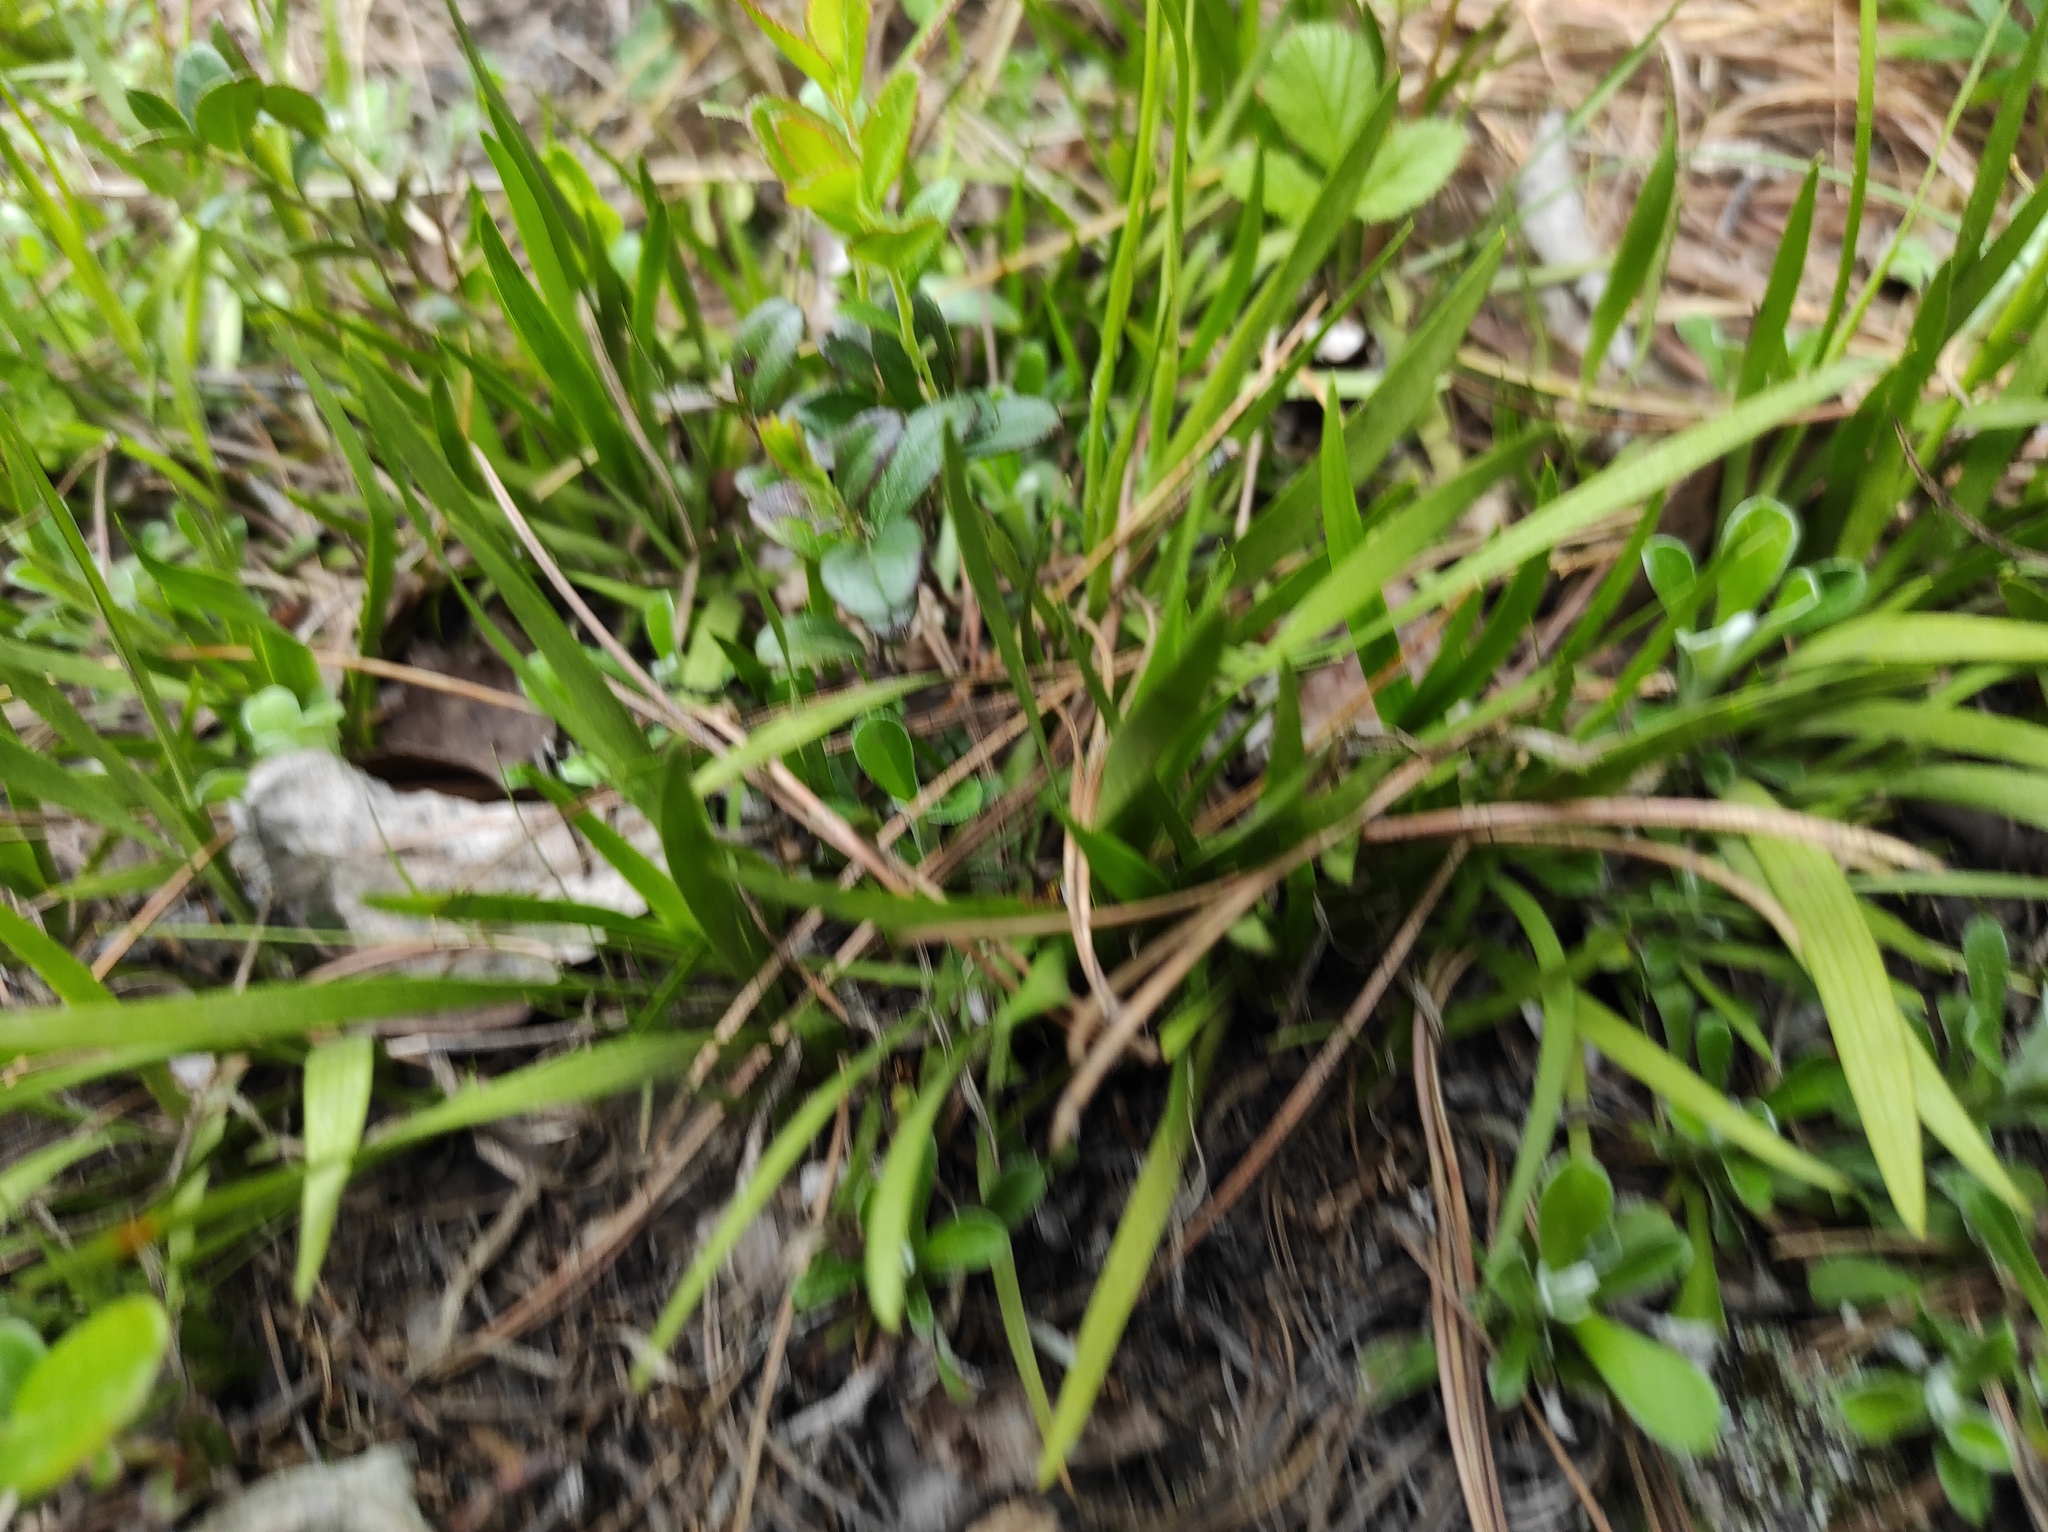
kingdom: Plantae
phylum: Tracheophyta
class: Liliopsida
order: Alismatales
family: Tofieldiaceae
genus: Tofieldia
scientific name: Tofieldia cernua
